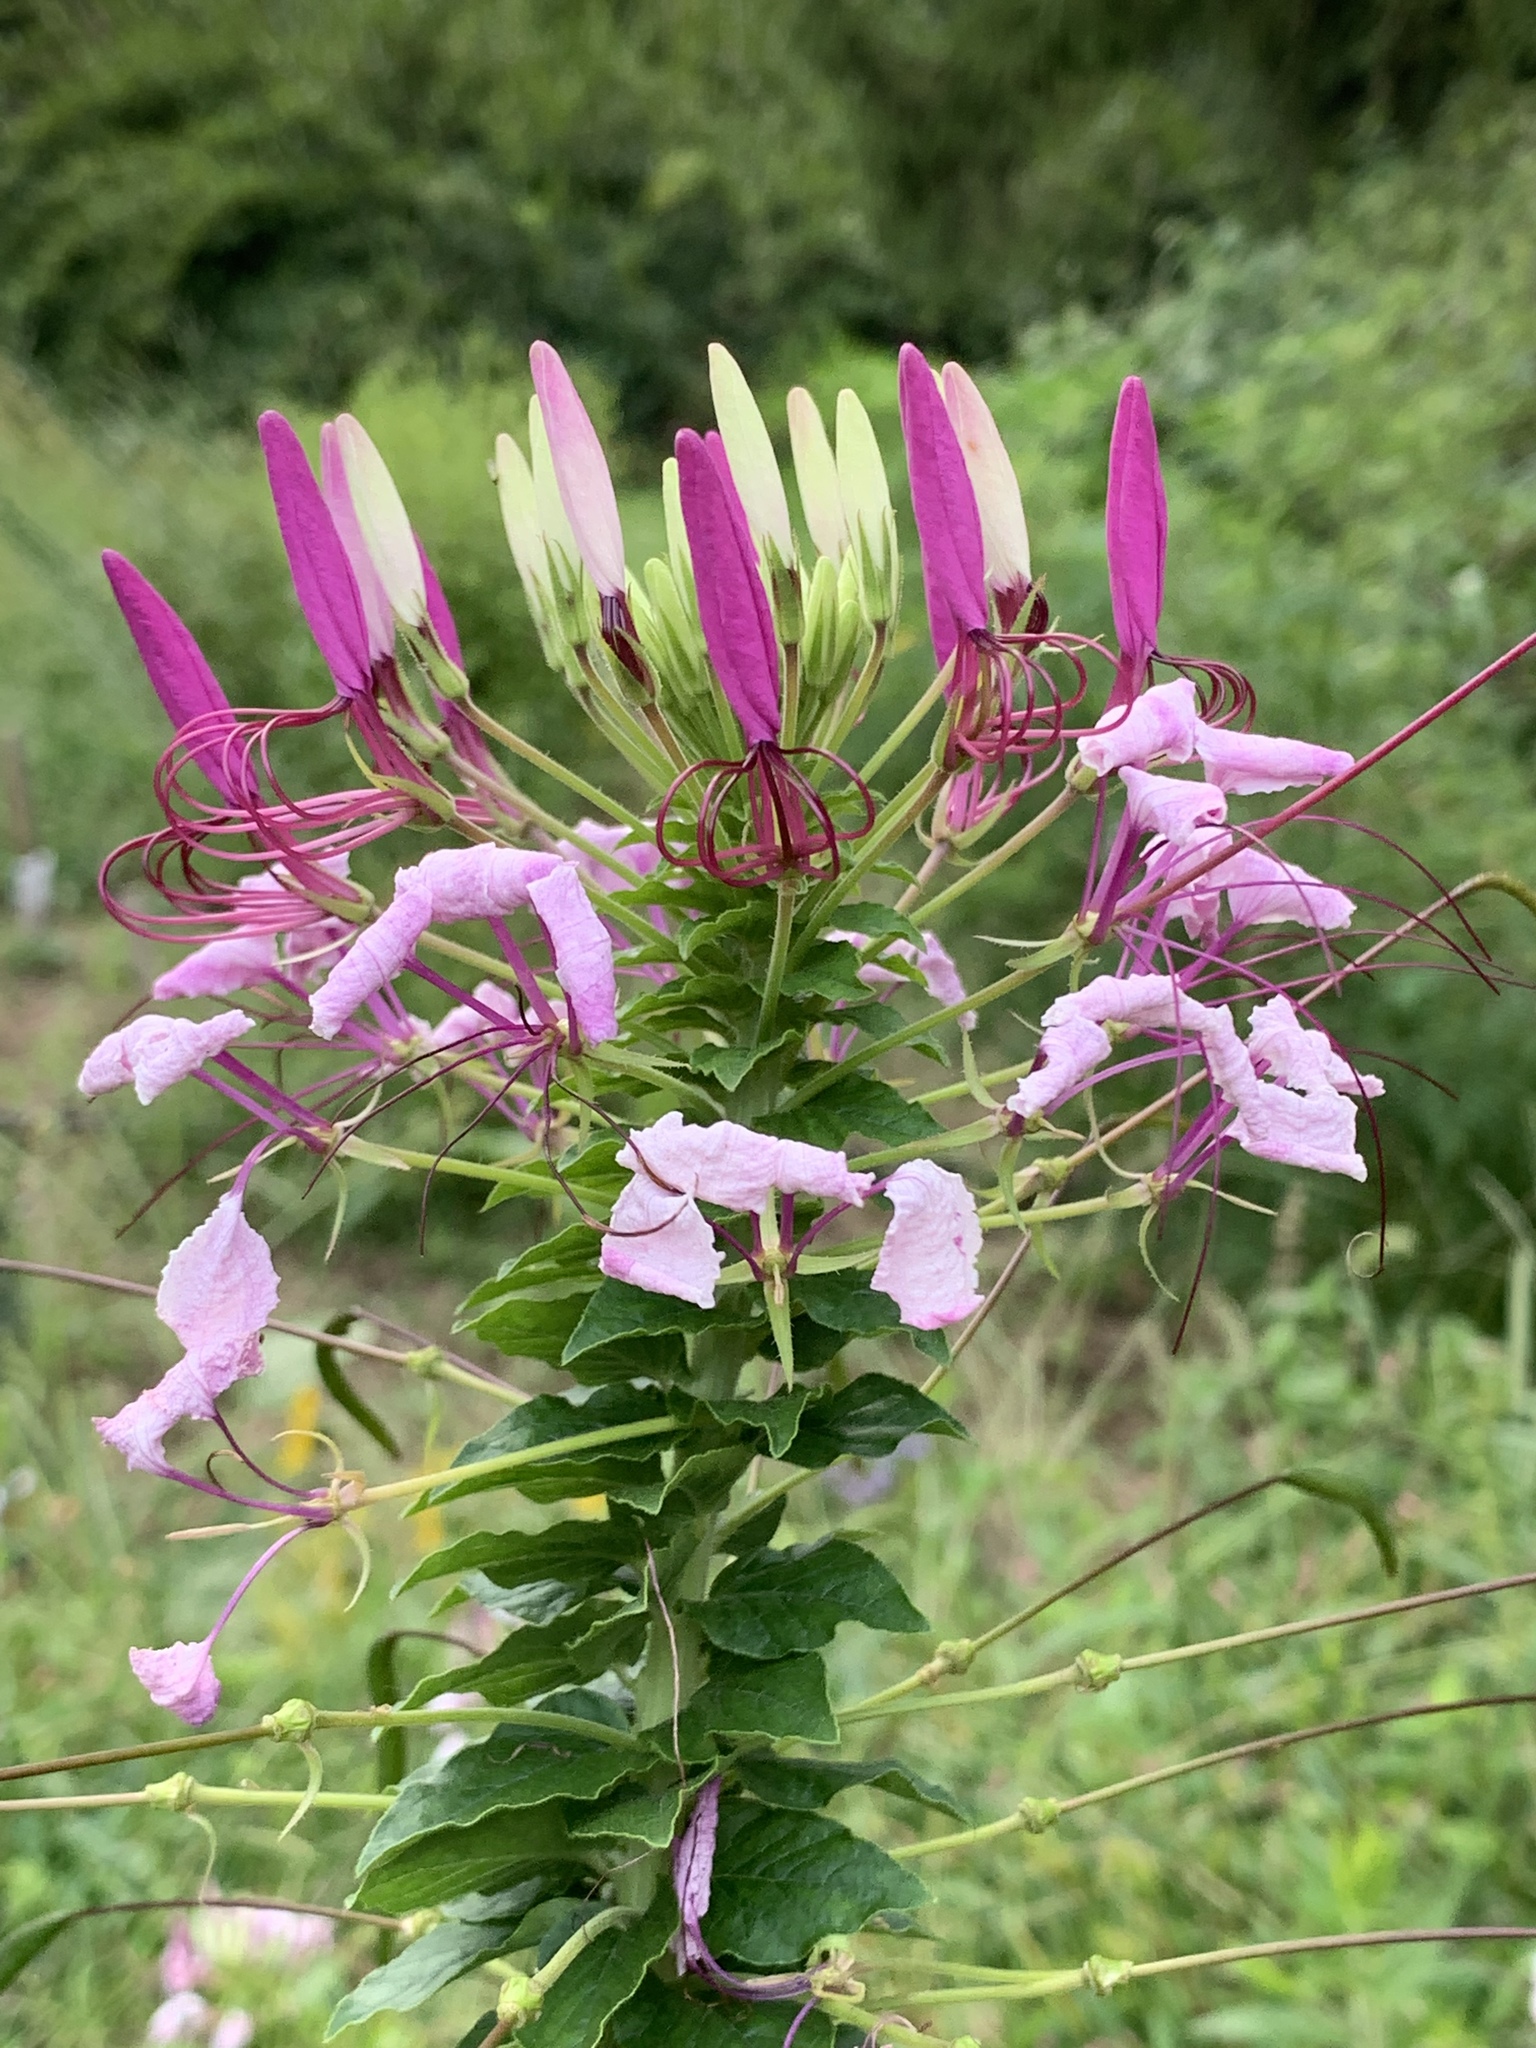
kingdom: Plantae
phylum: Tracheophyta
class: Magnoliopsida
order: Brassicales
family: Cleomaceae
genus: Tarenaya
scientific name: Tarenaya houtteana
